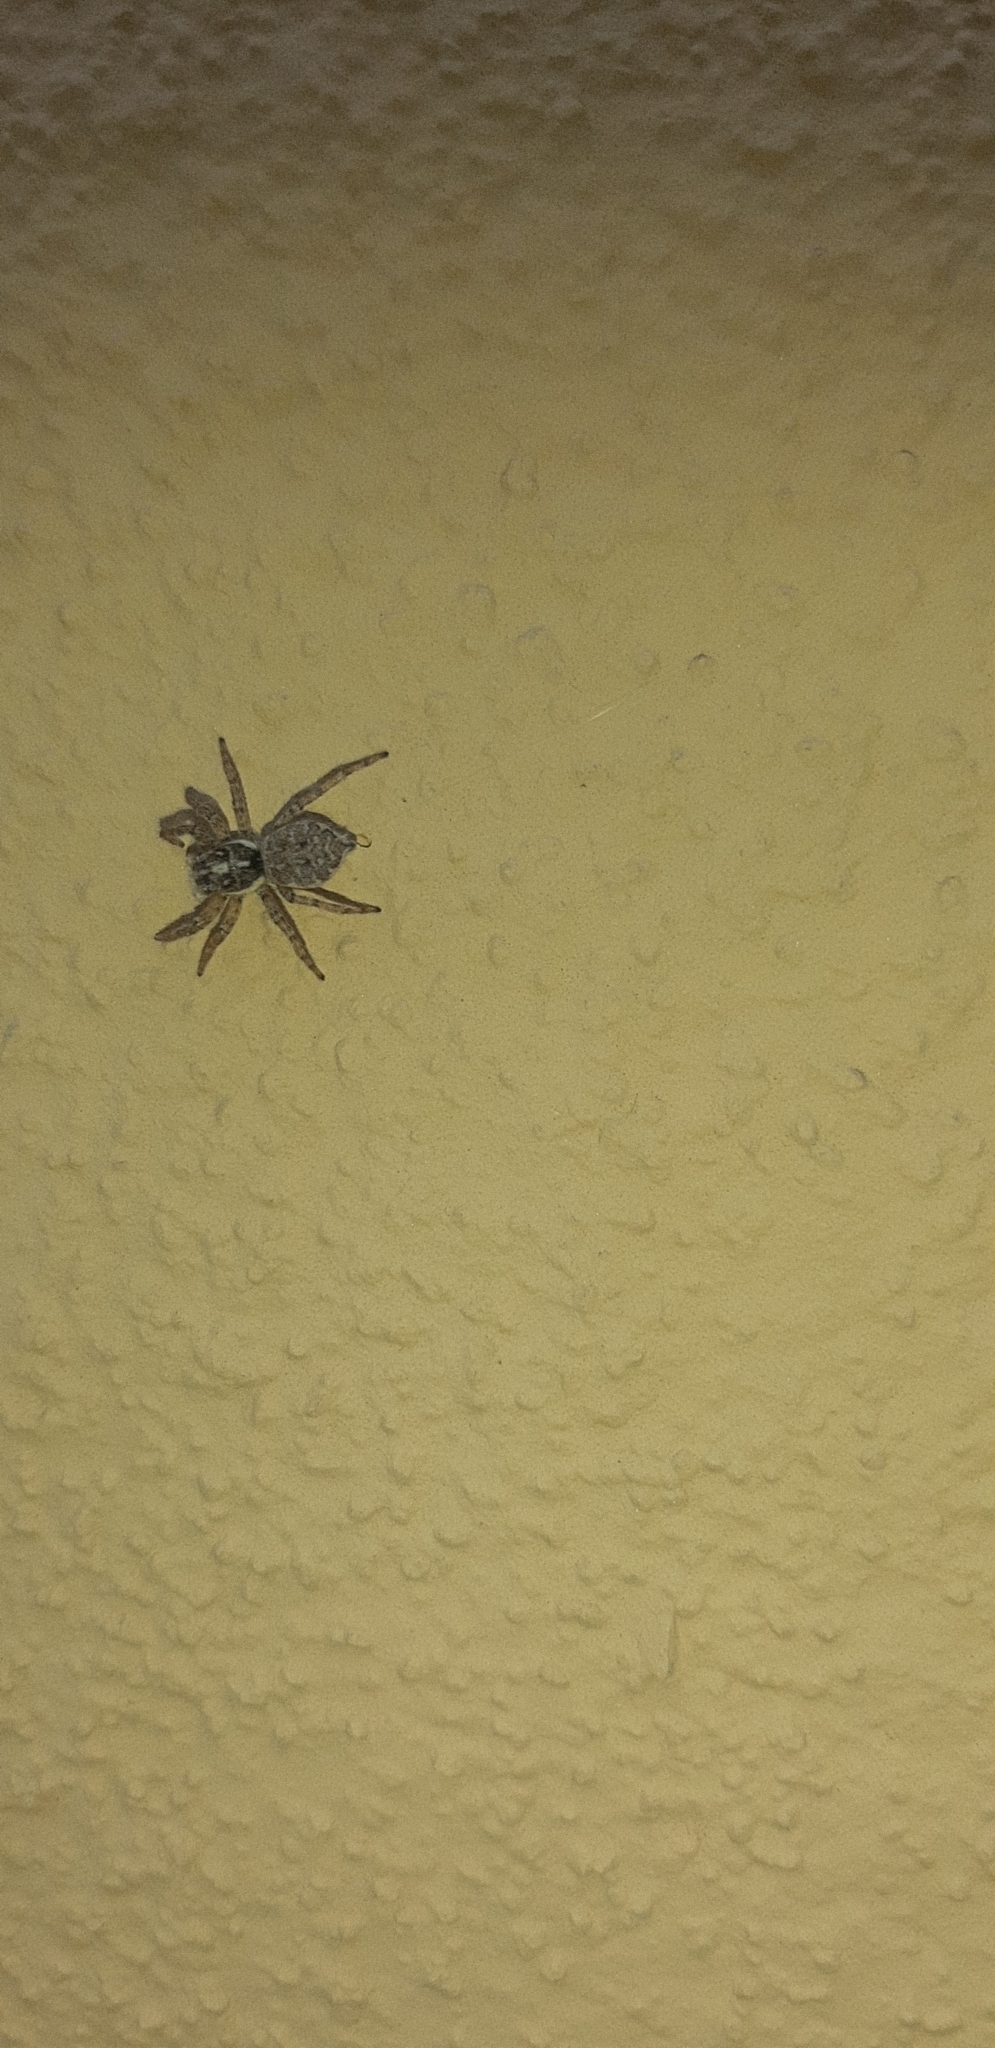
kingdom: Animalia
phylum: Arthropoda
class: Arachnida
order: Araneae
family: Salticidae
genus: Menemerus
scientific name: Menemerus semilimbatus
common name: Jumping spider
